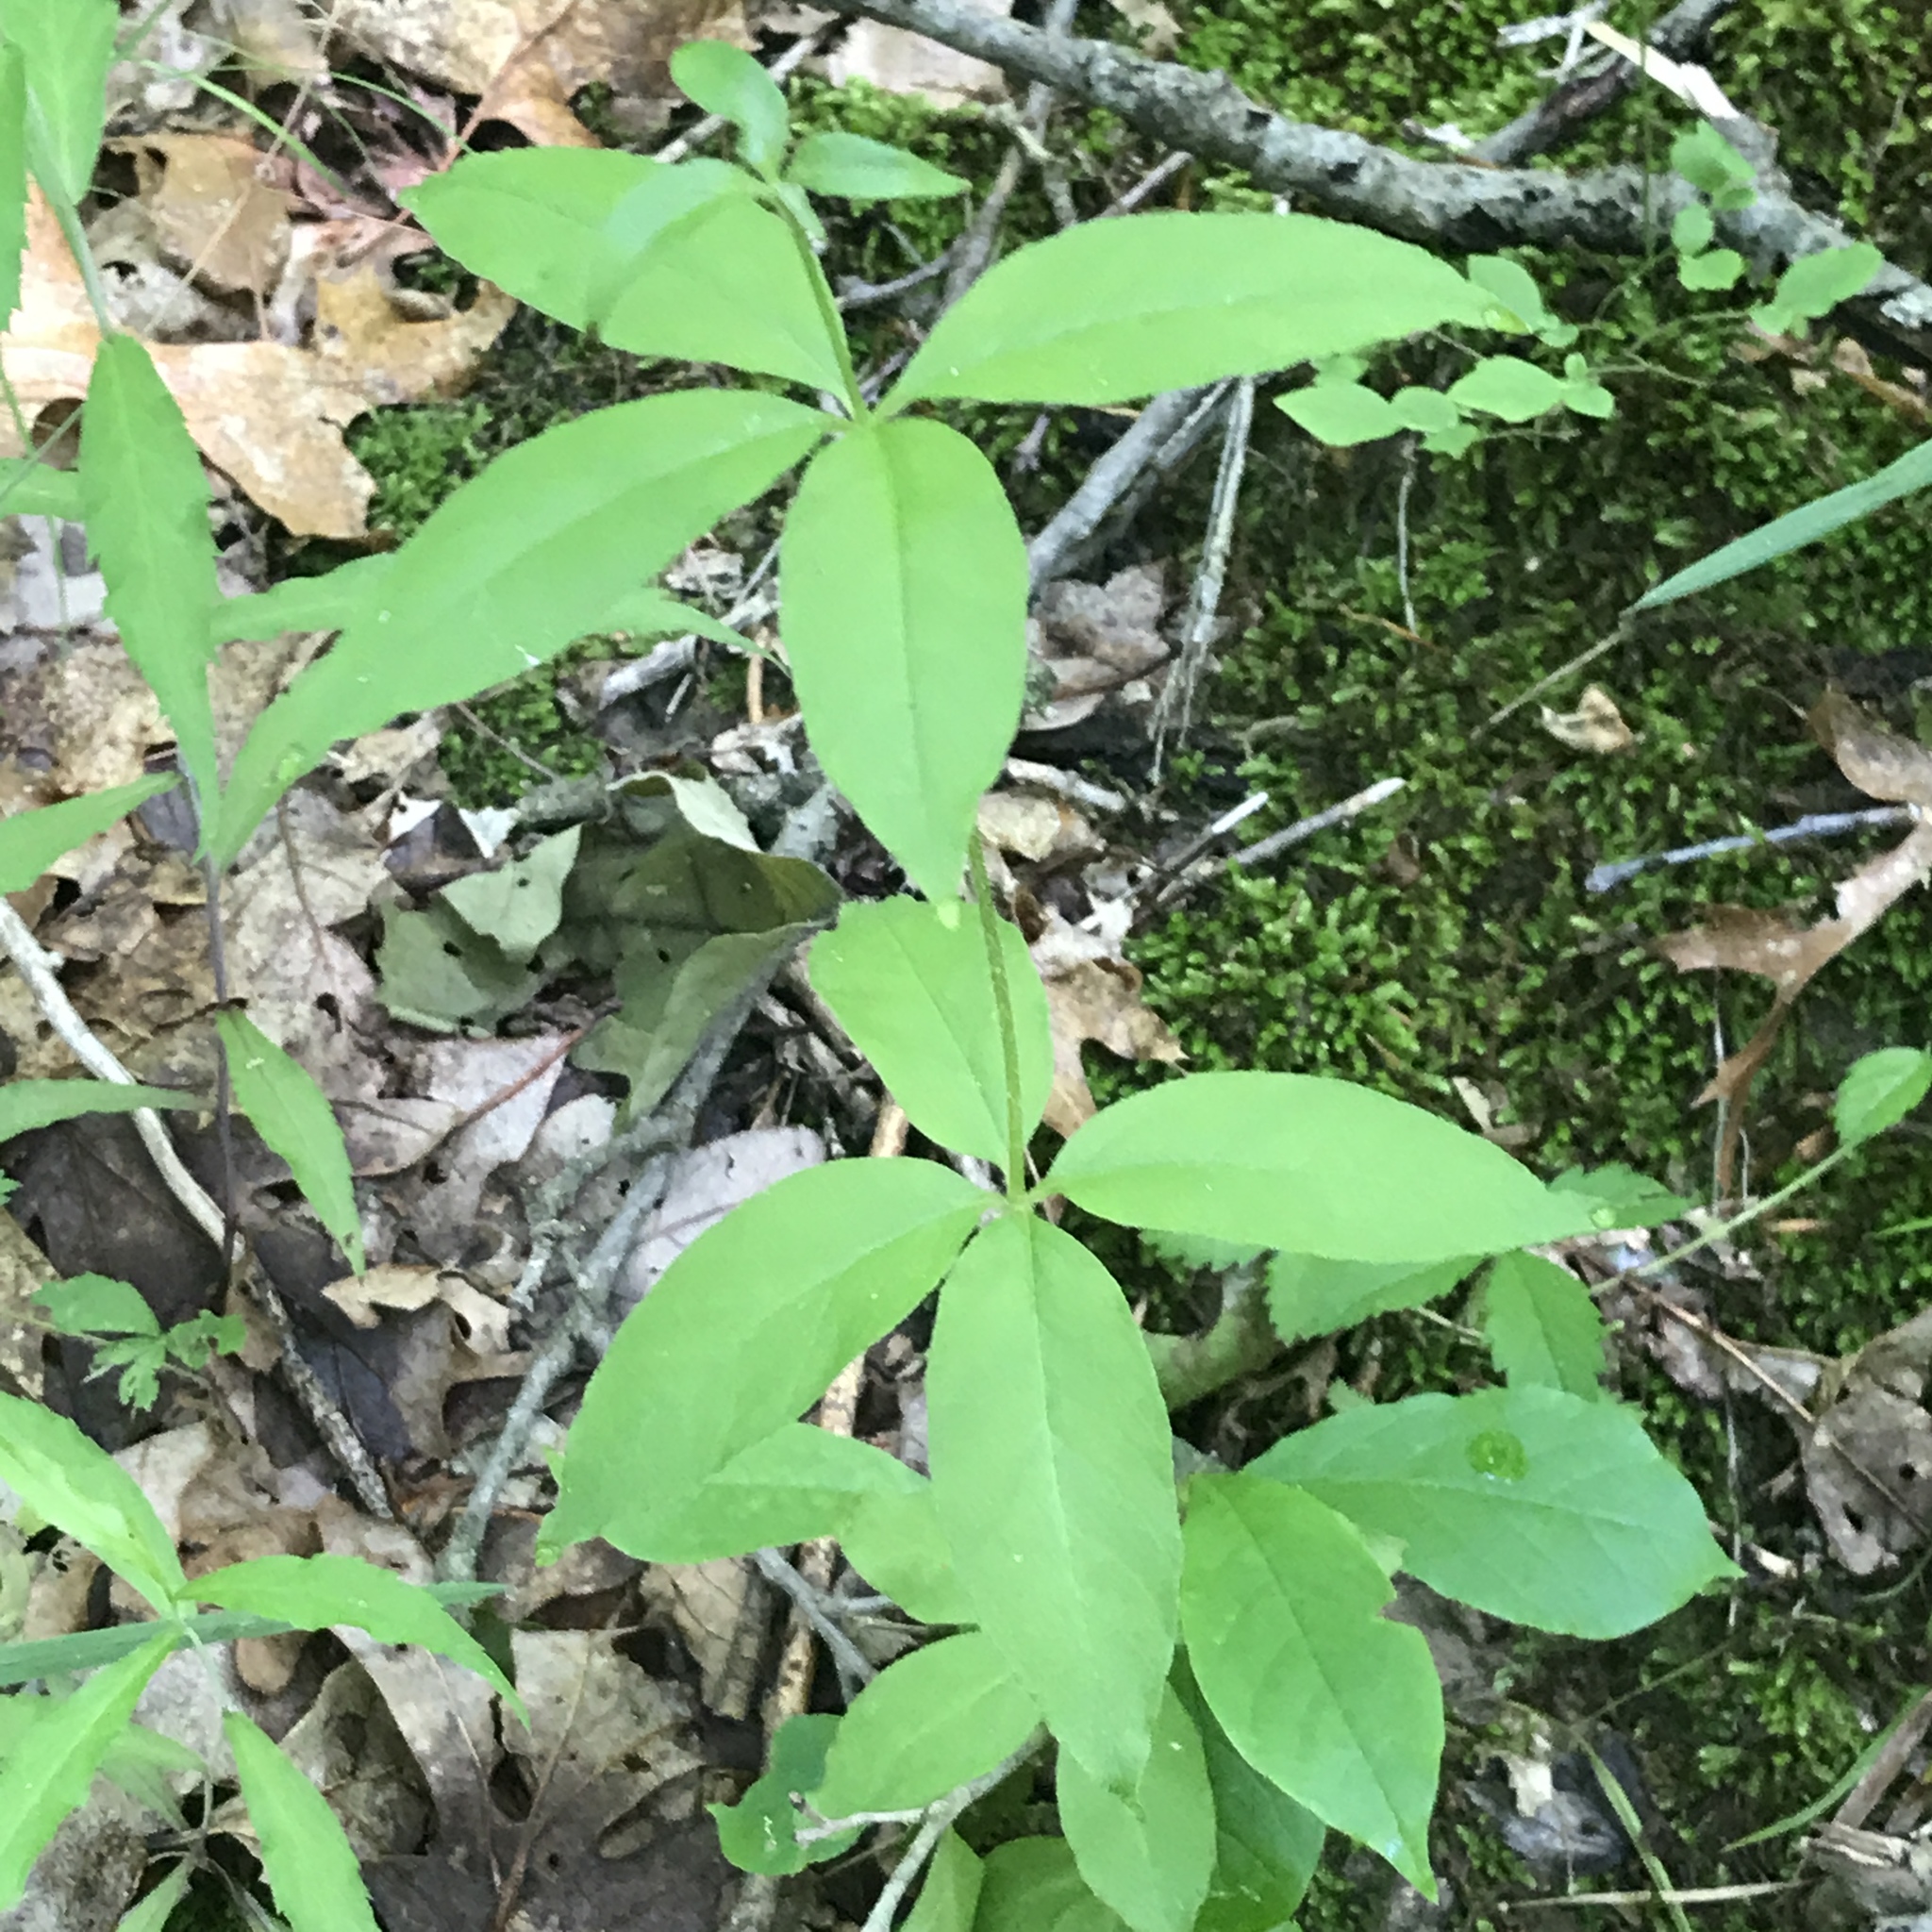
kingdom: Plantae
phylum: Tracheophyta
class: Magnoliopsida
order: Ericales
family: Primulaceae
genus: Lysimachia
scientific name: Lysimachia quadrifolia
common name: Whorled loosestrife
